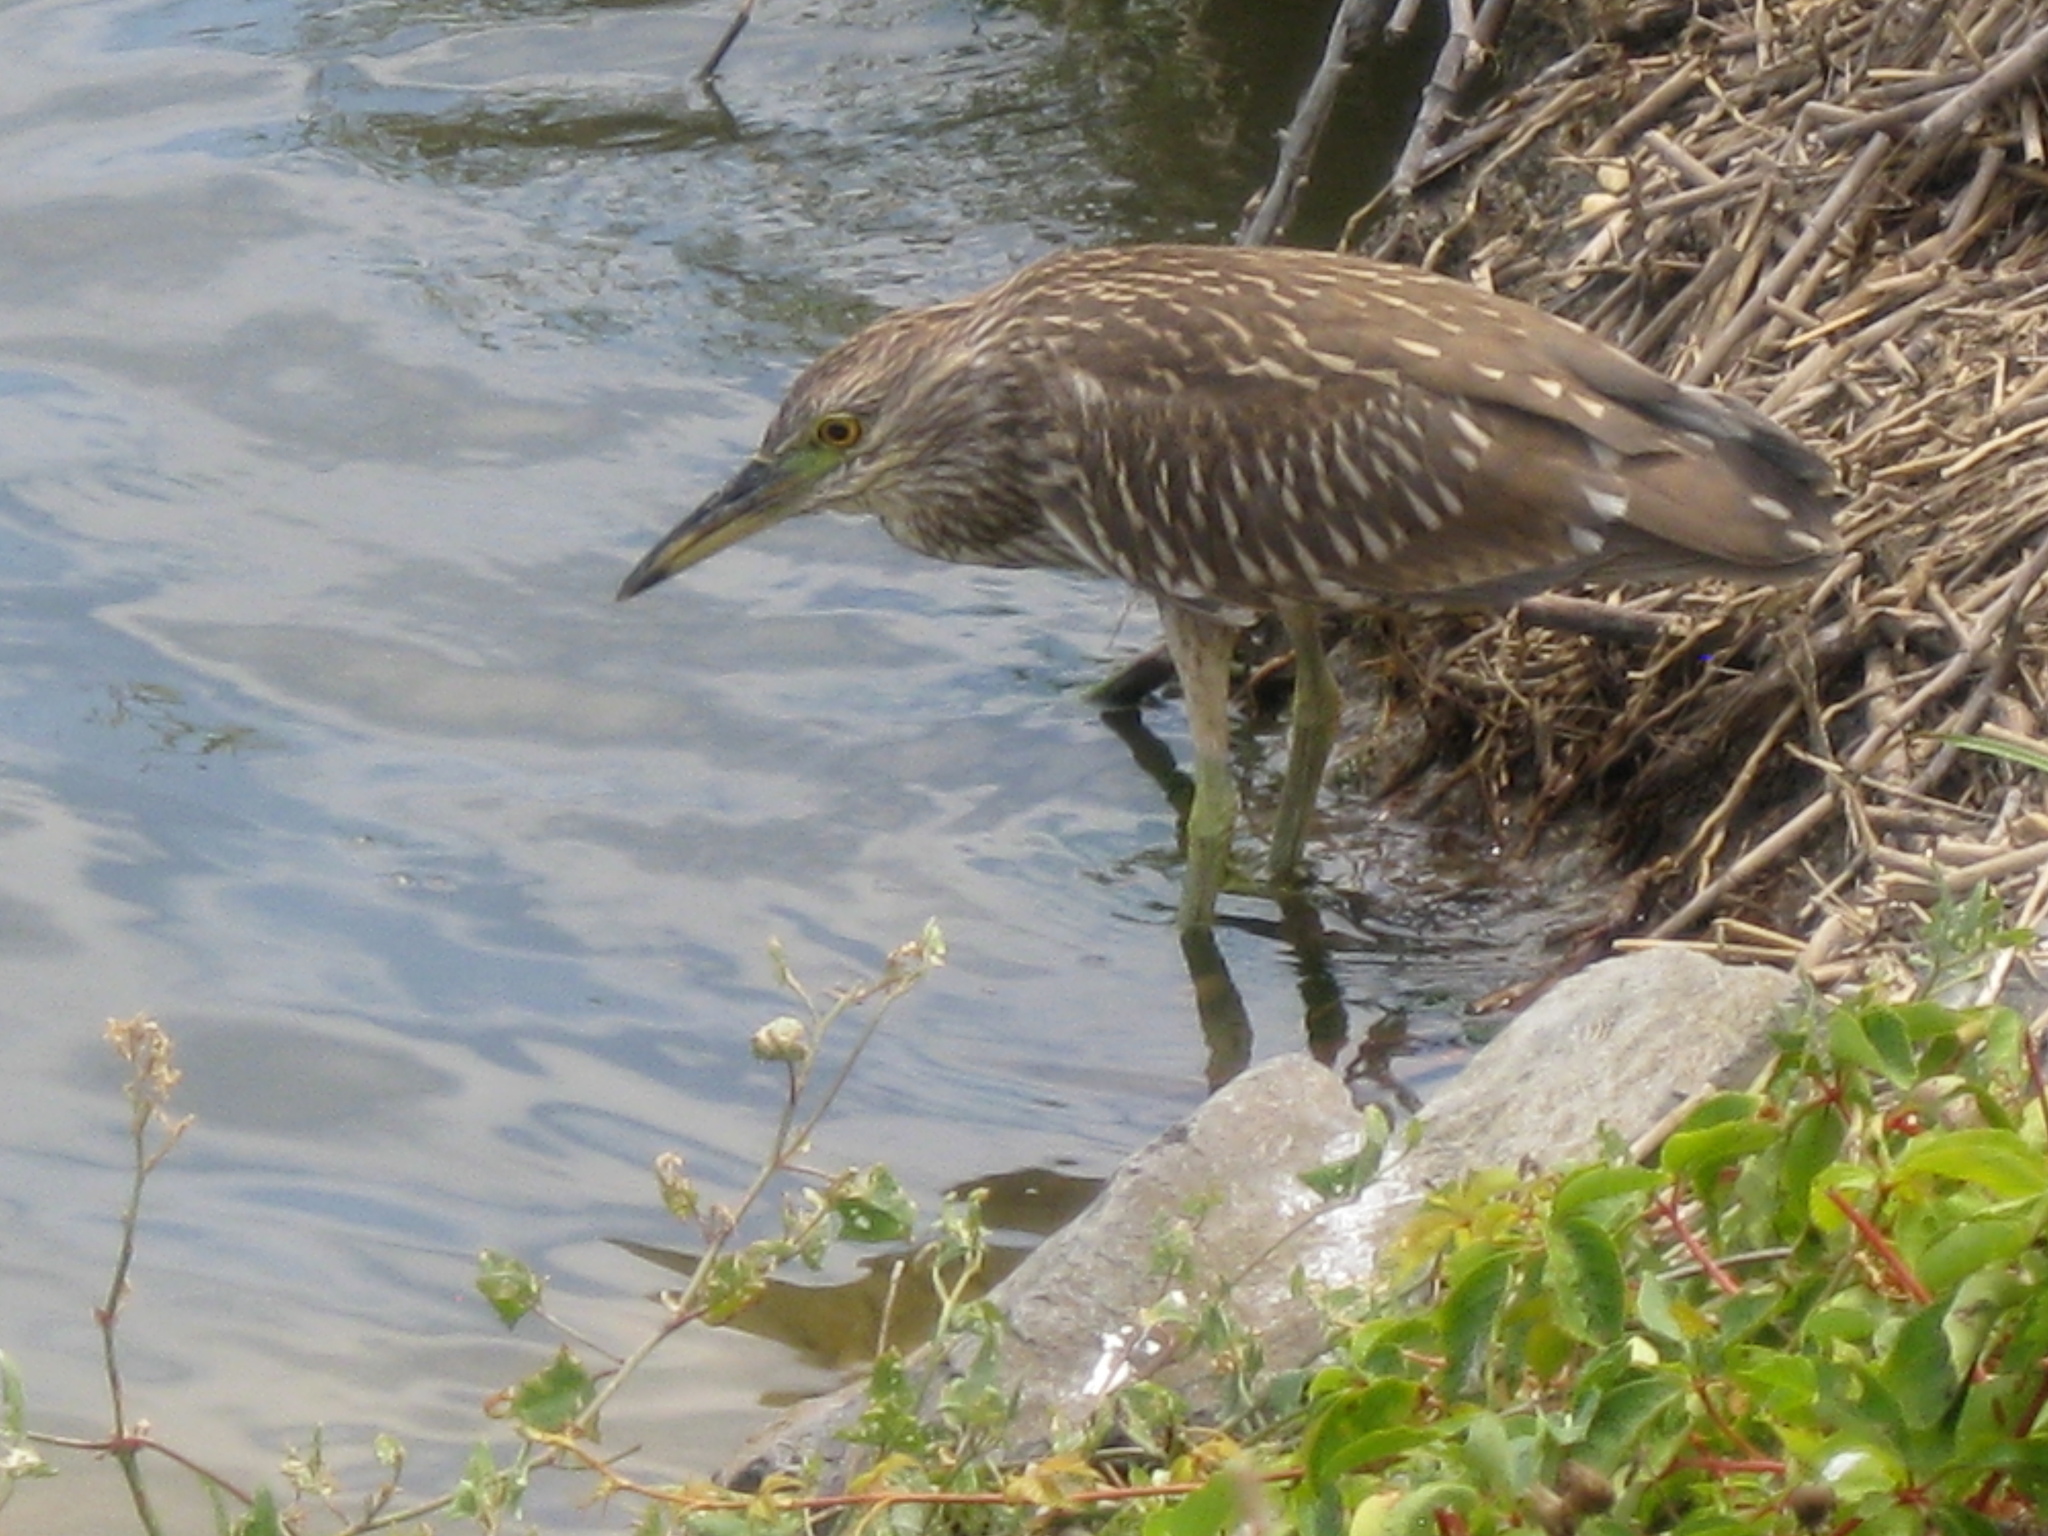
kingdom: Animalia
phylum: Chordata
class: Aves
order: Pelecaniformes
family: Ardeidae
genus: Nycticorax
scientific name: Nycticorax nycticorax
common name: Black-crowned night heron
